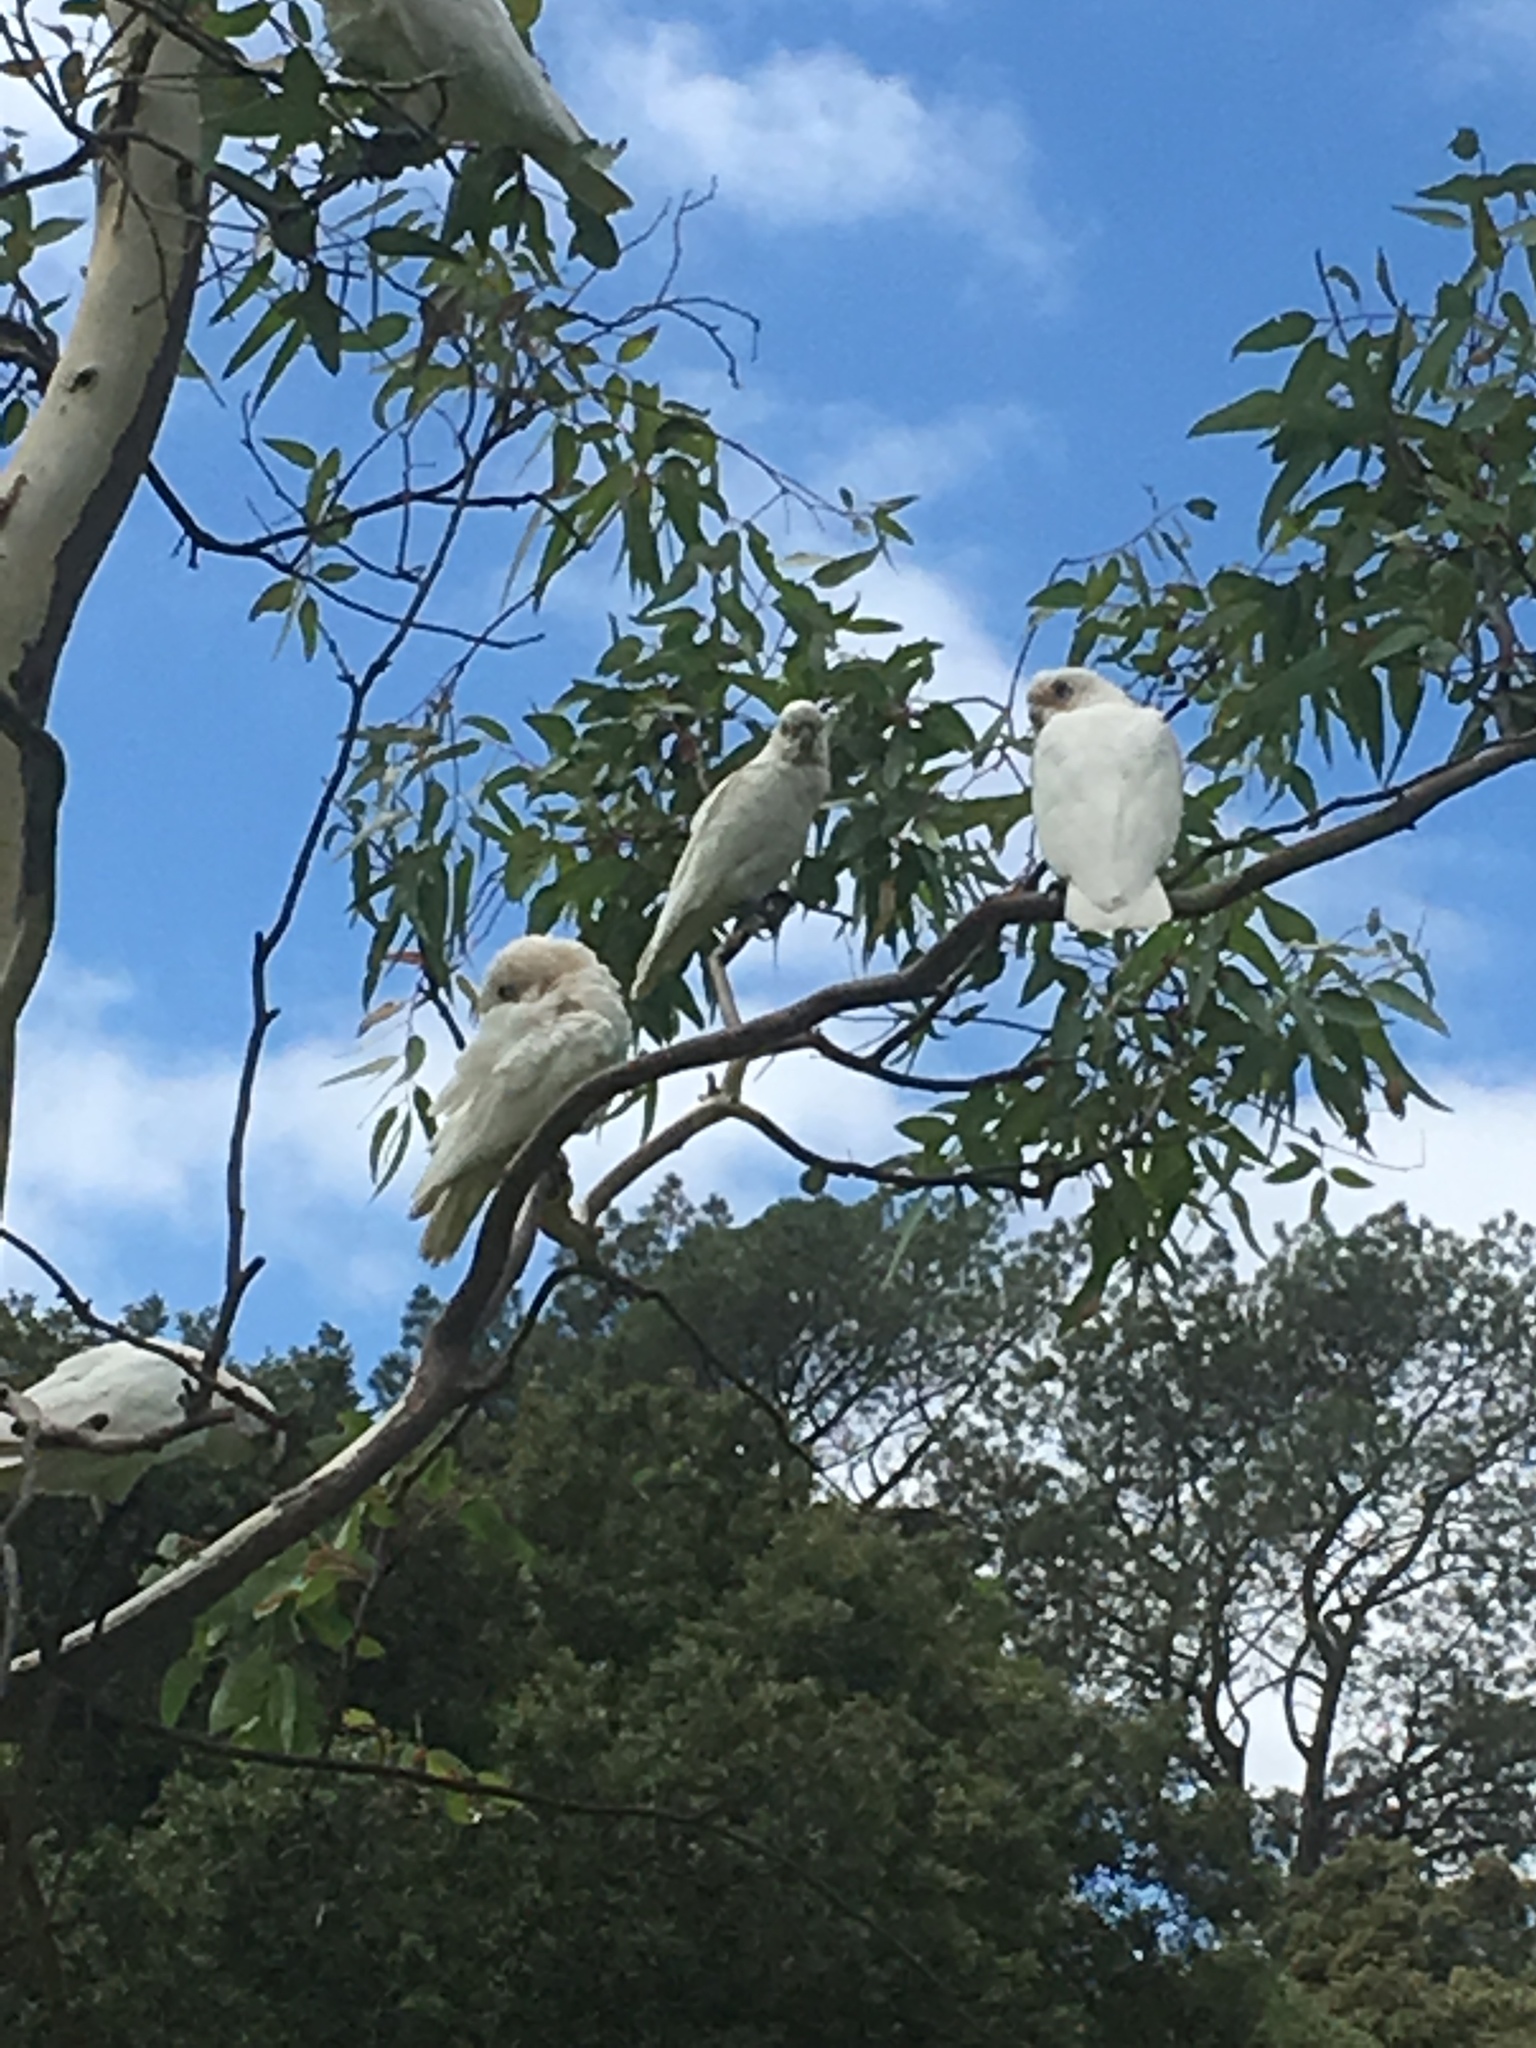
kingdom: Animalia
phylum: Chordata
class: Aves
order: Psittaciformes
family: Psittacidae
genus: Cacatua
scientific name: Cacatua sanguinea
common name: Little corella
